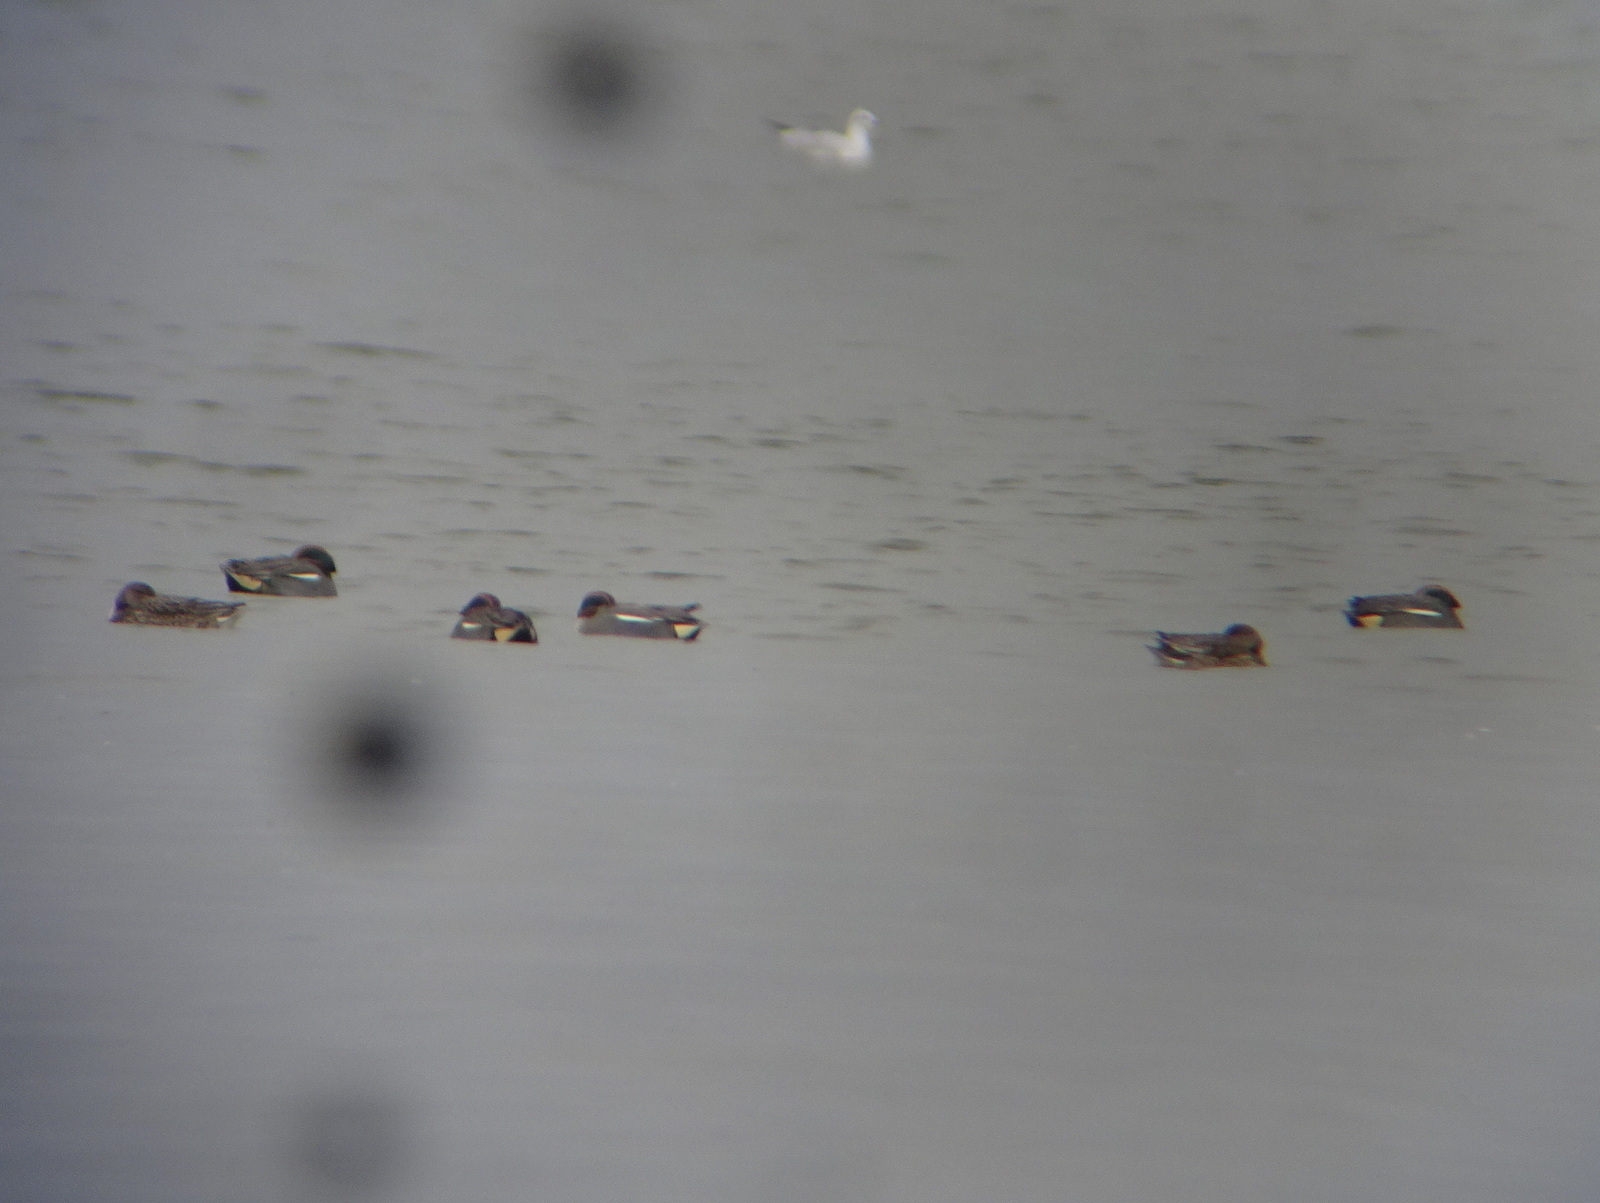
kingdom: Animalia
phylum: Chordata
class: Aves
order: Anseriformes
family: Anatidae
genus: Anas
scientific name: Anas crecca
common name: Eurasian teal
